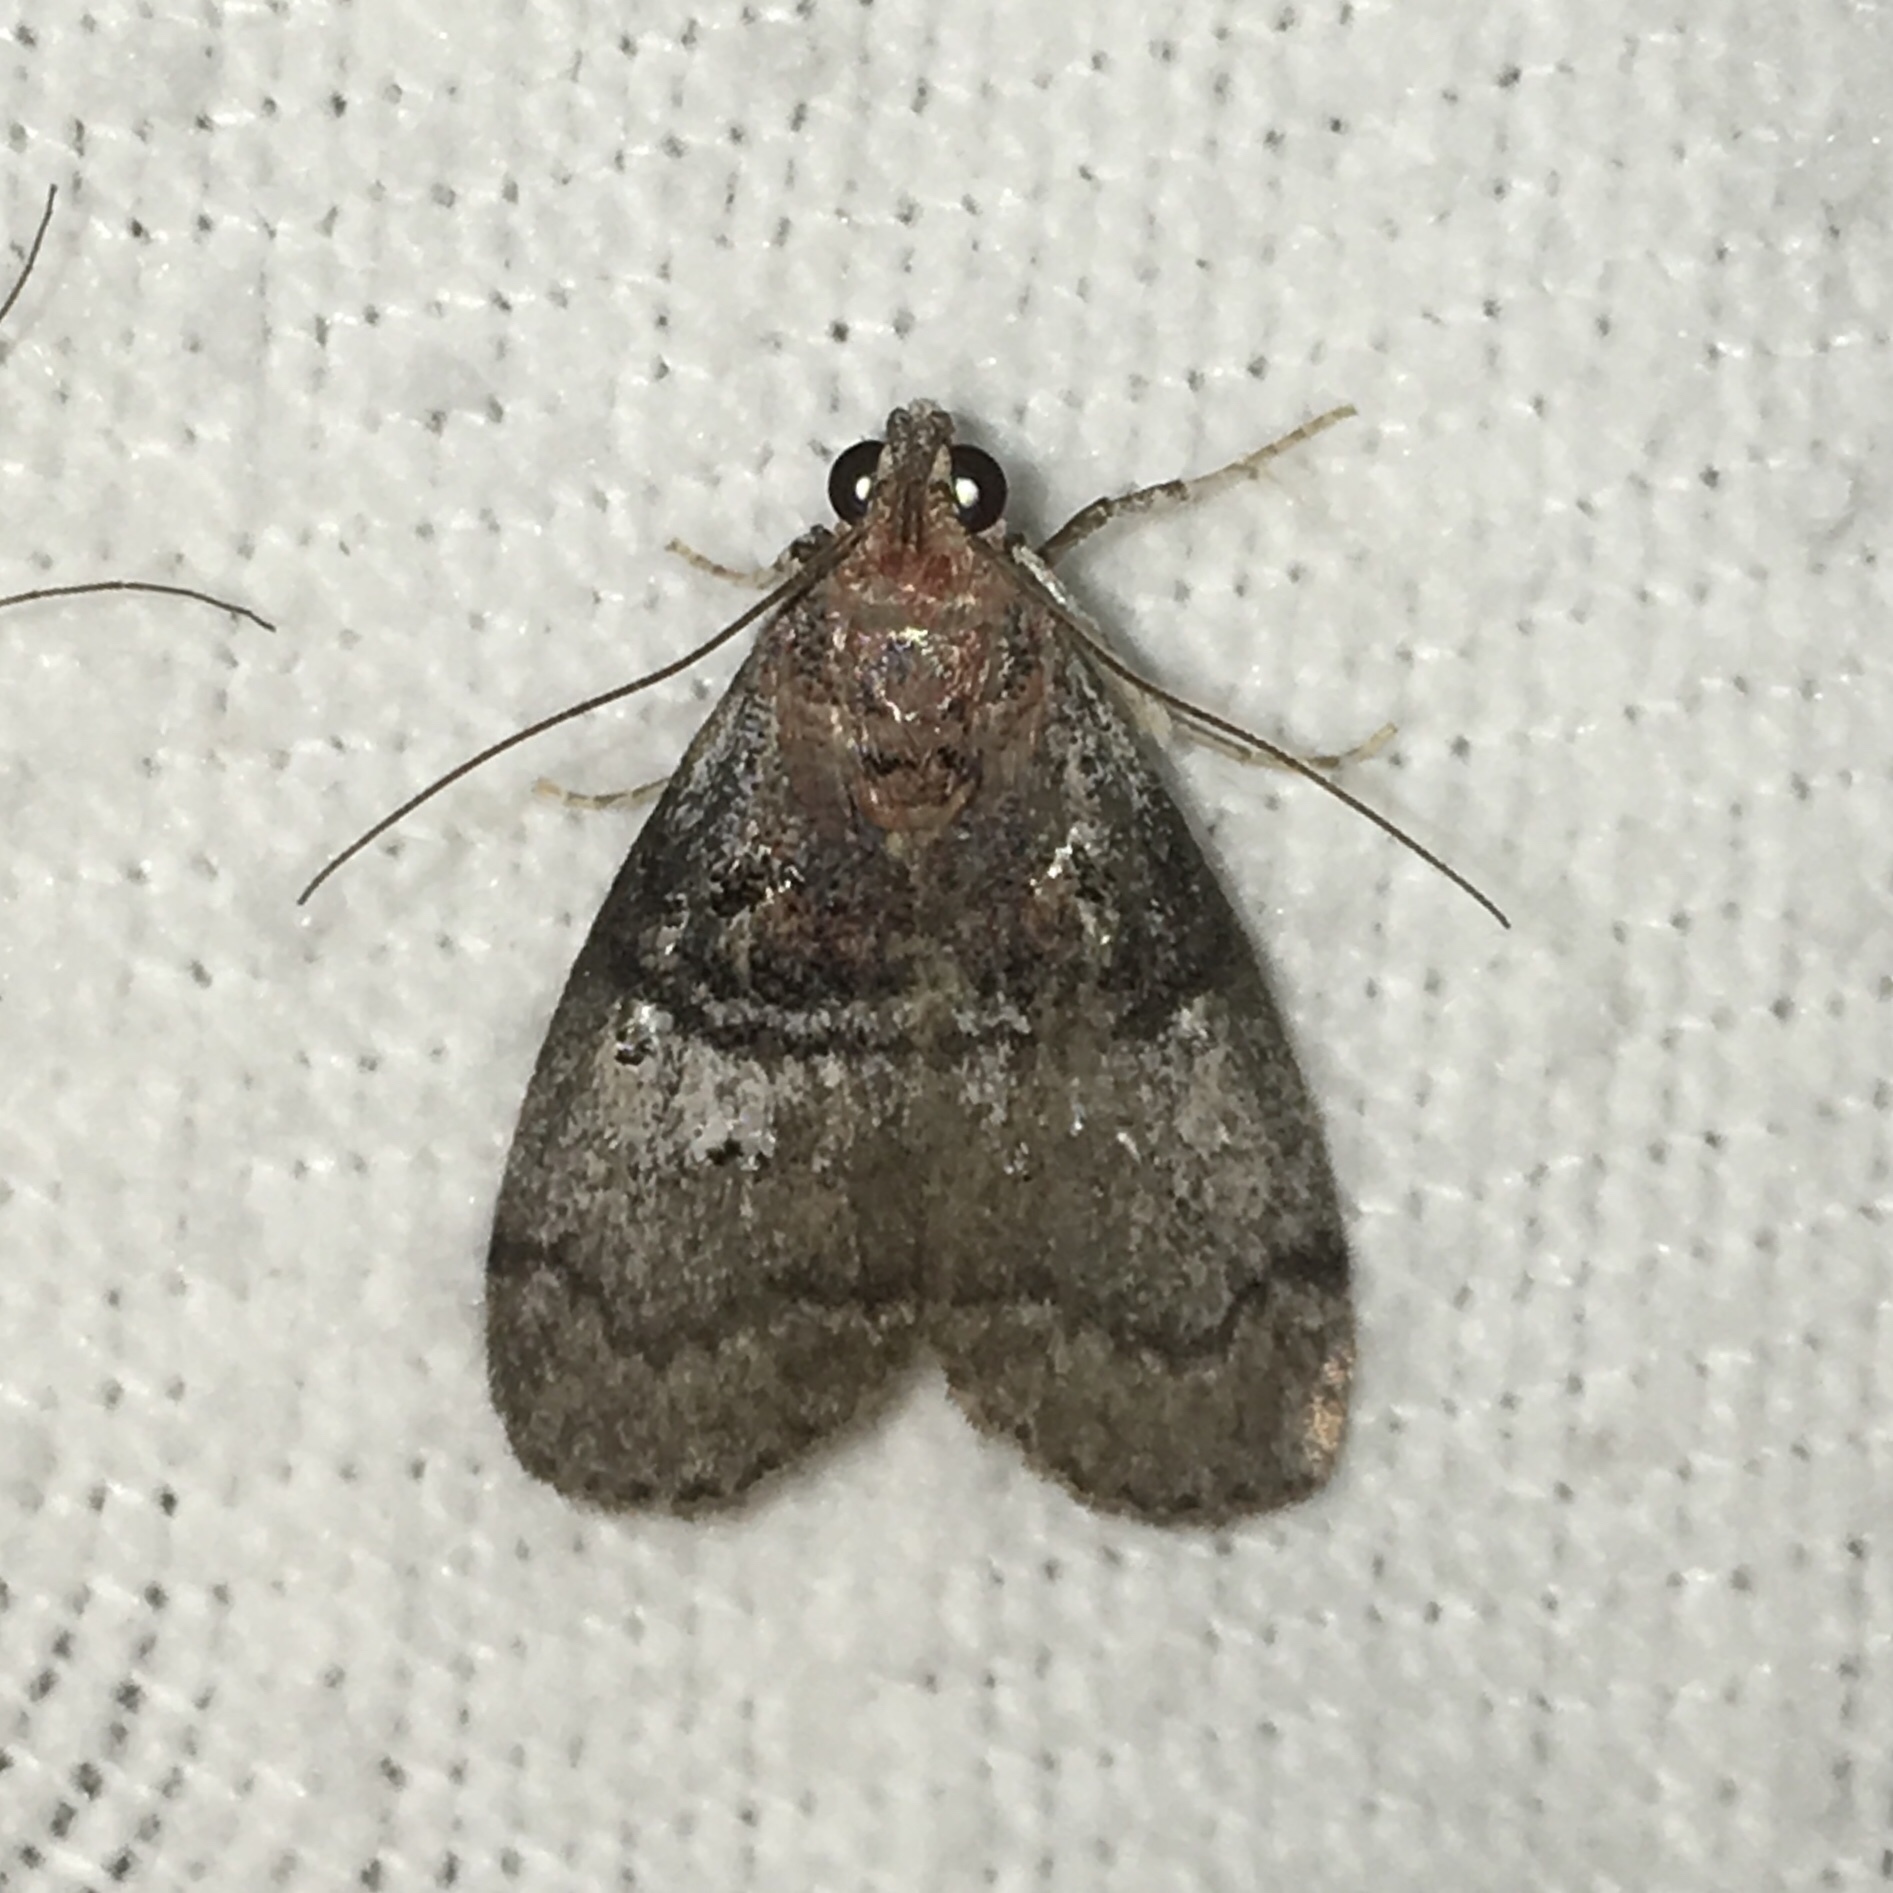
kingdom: Animalia
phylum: Arthropoda
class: Insecta
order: Lepidoptera
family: Pyralidae
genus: Pococera
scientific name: Pococera asperatella
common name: Maple webworm moth
